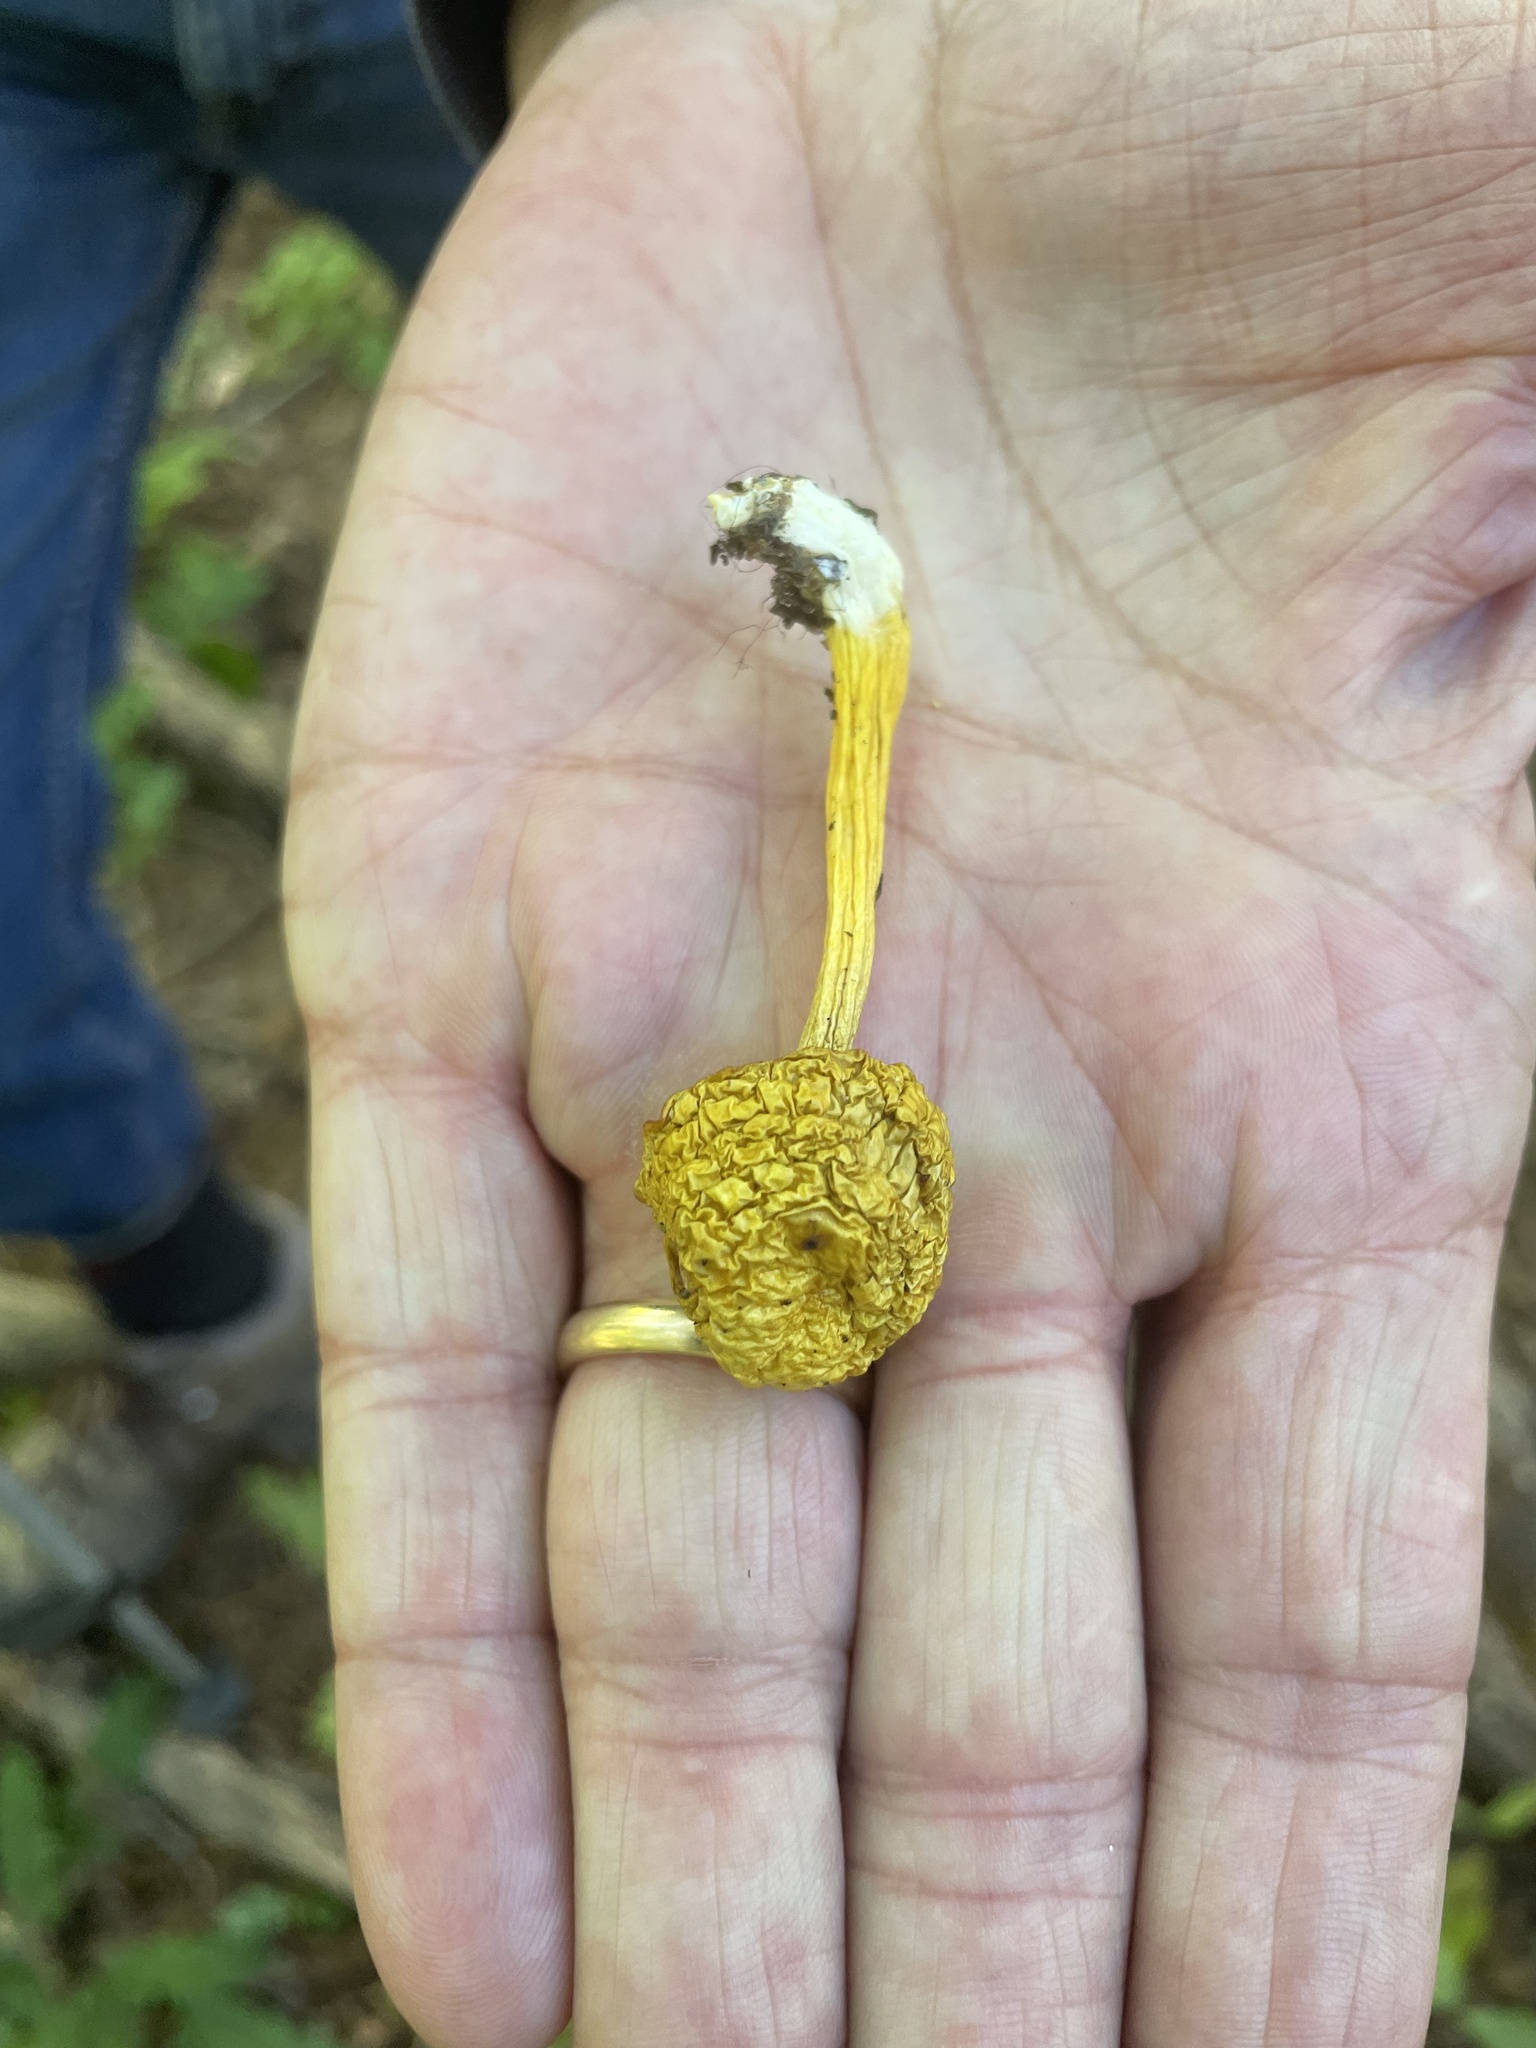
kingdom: Fungi
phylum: Basidiomycota
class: Agaricomycetes
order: Boletales
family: Boletaceae
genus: Pulveroboletus
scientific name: Pulveroboletus curtisii
